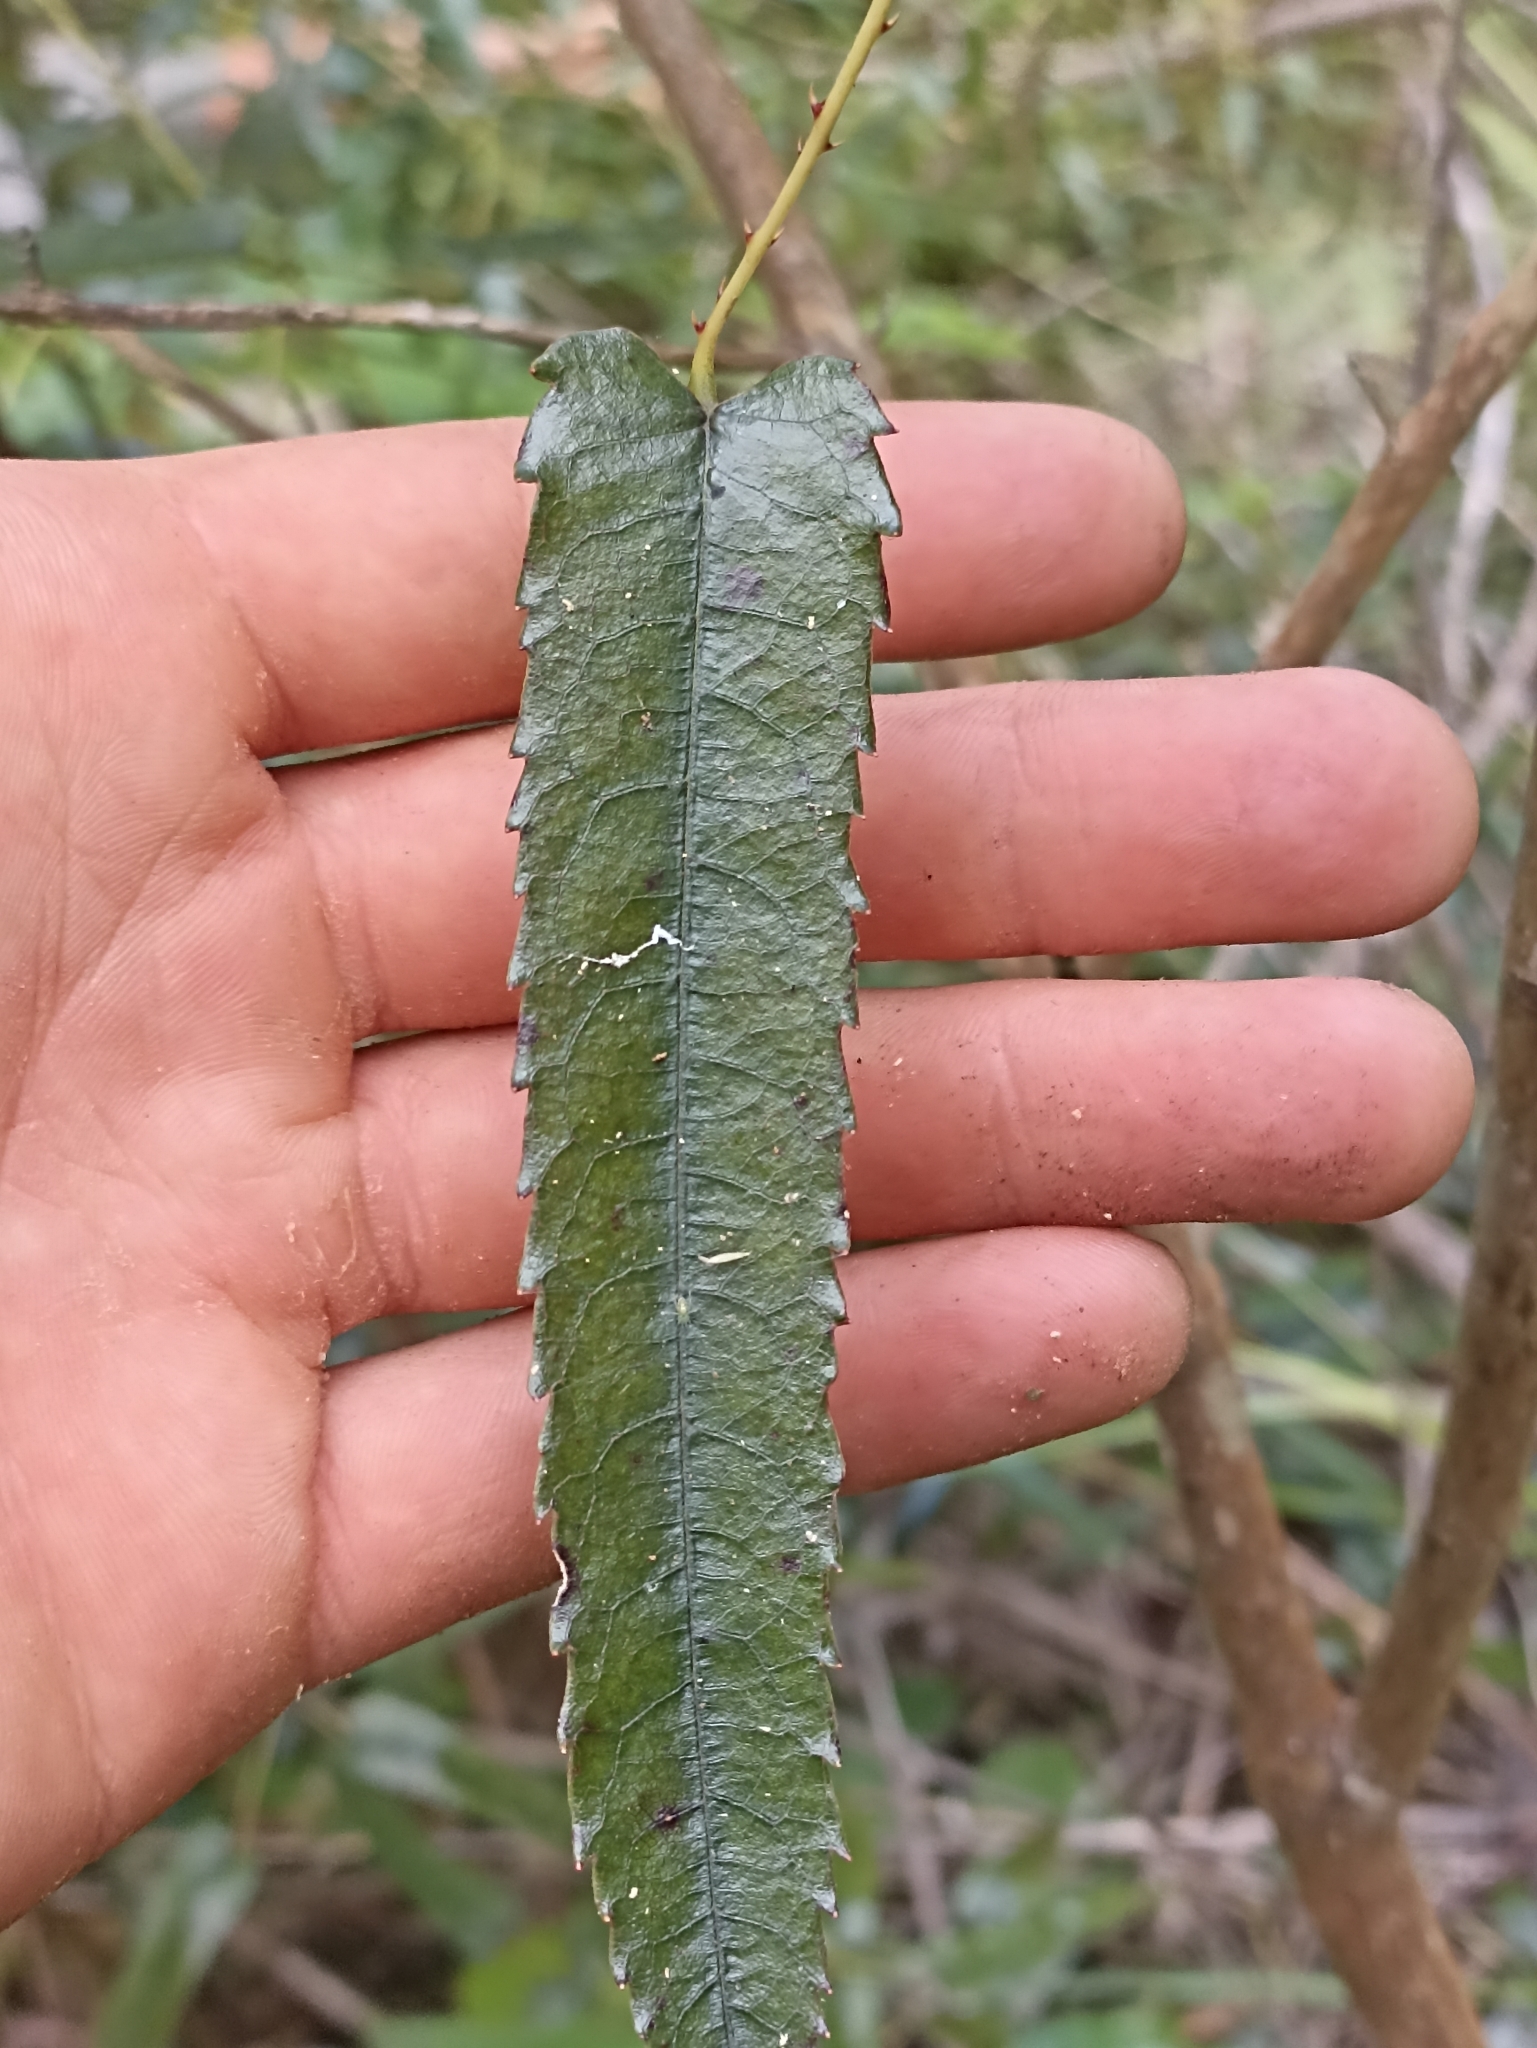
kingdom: Plantae
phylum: Tracheophyta
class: Magnoliopsida
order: Rosales
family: Rosaceae
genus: Rubus
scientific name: Rubus cissoides
